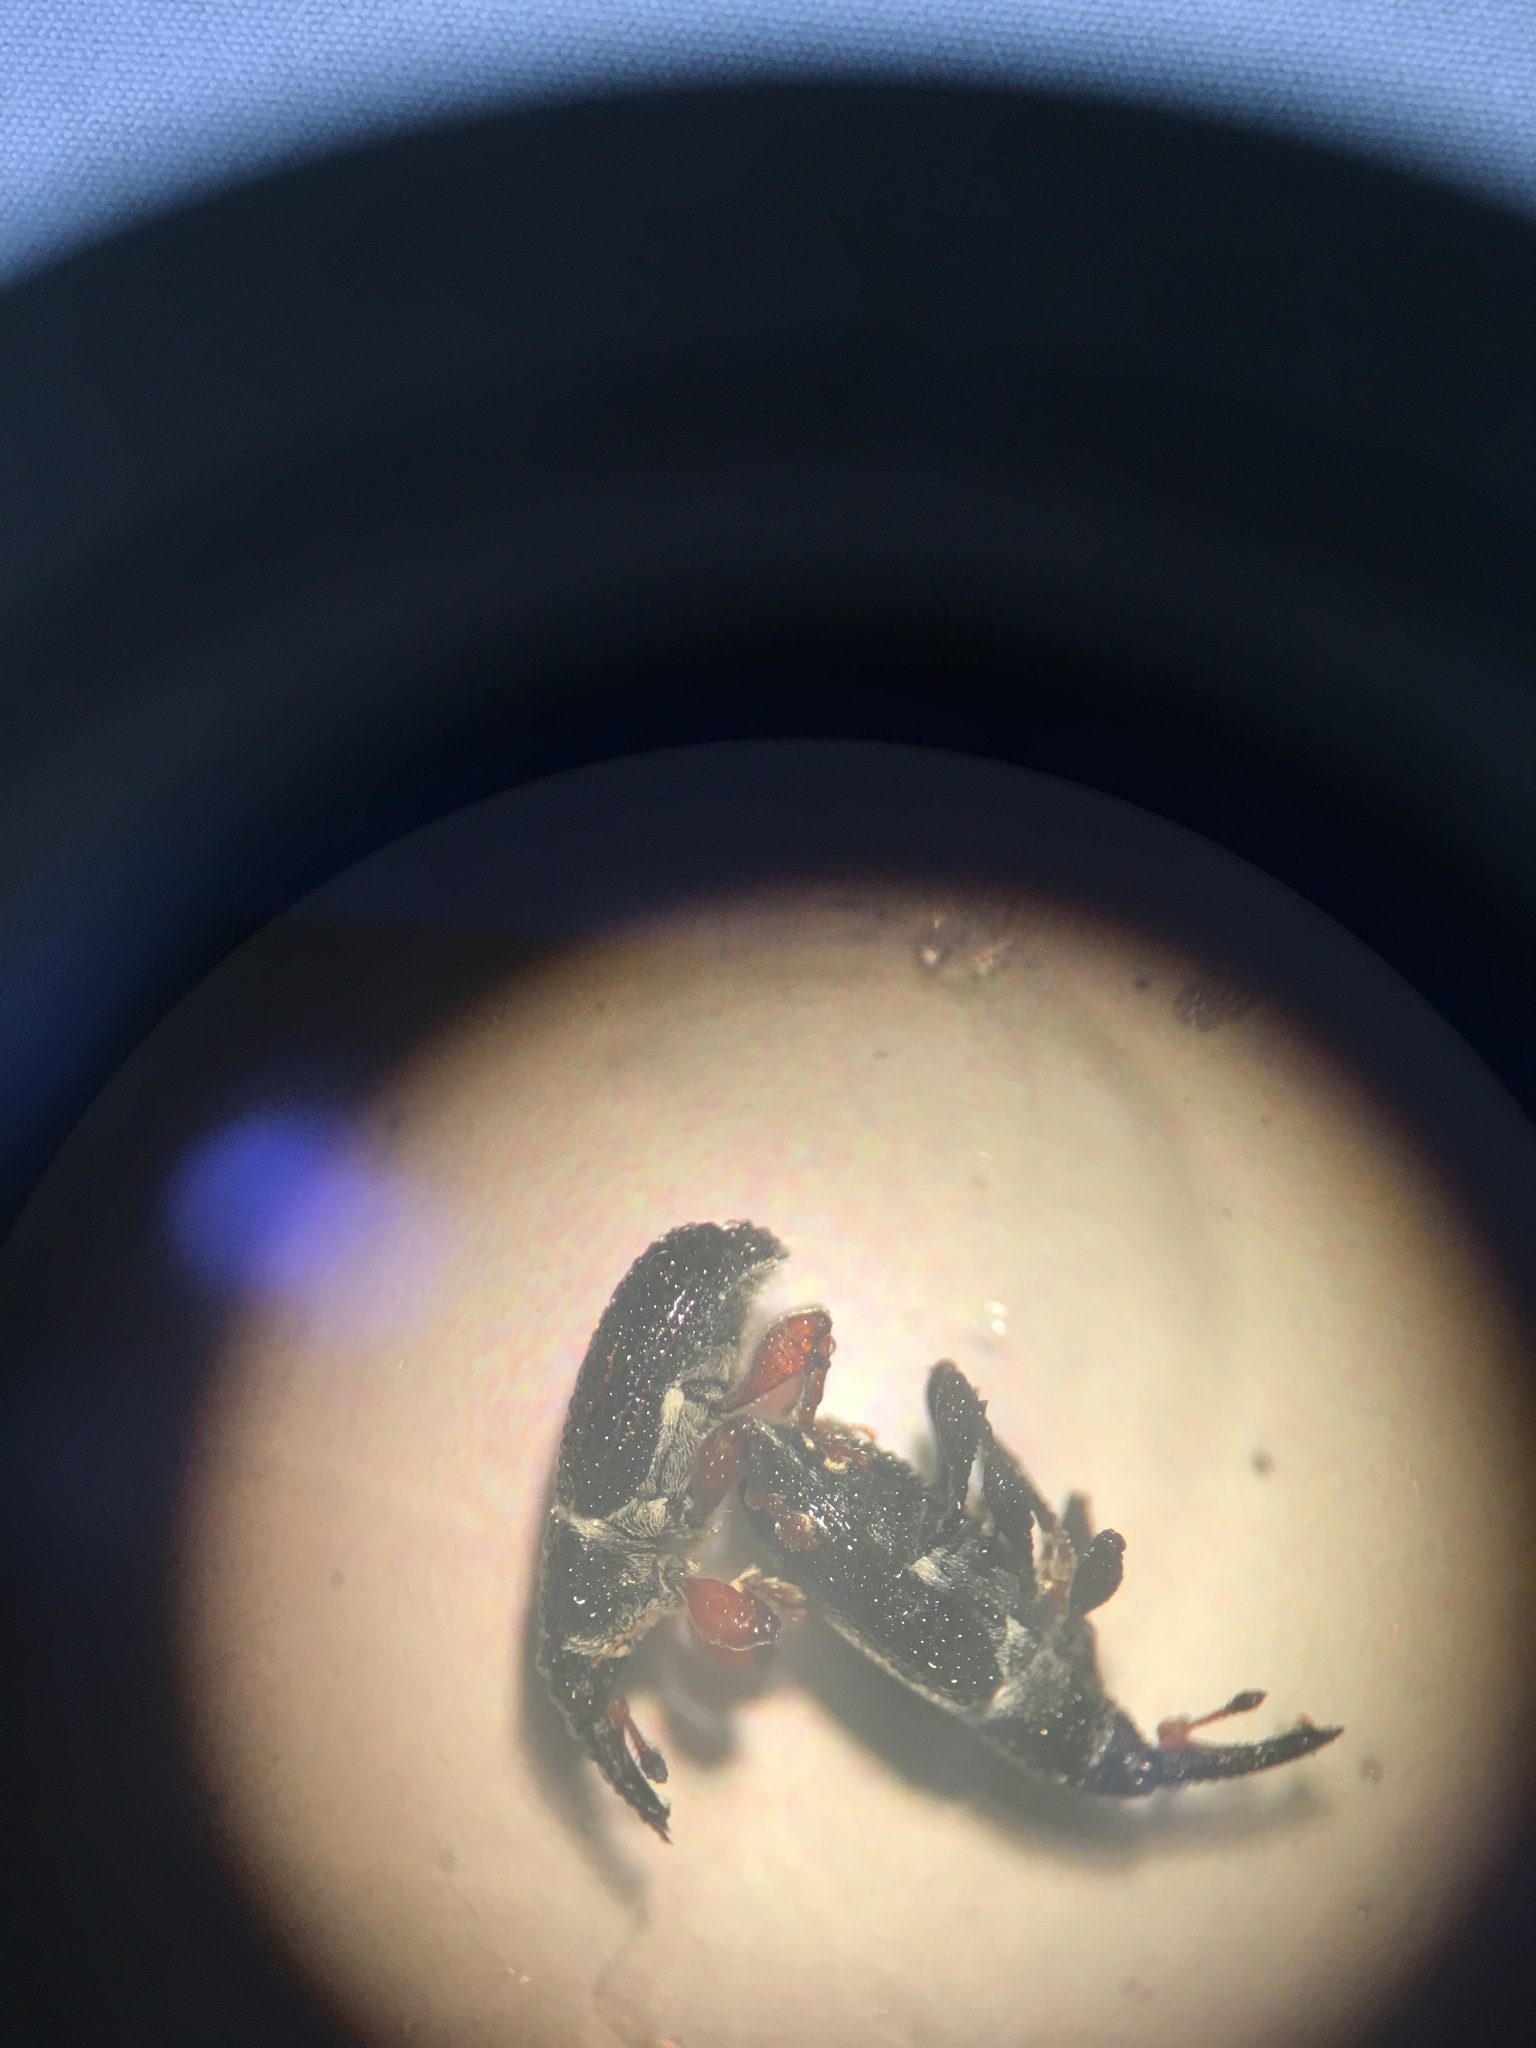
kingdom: Animalia
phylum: Arthropoda
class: Insecta
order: Coleoptera
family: Curculionidae
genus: Orpha
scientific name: Orpha flavicornis
